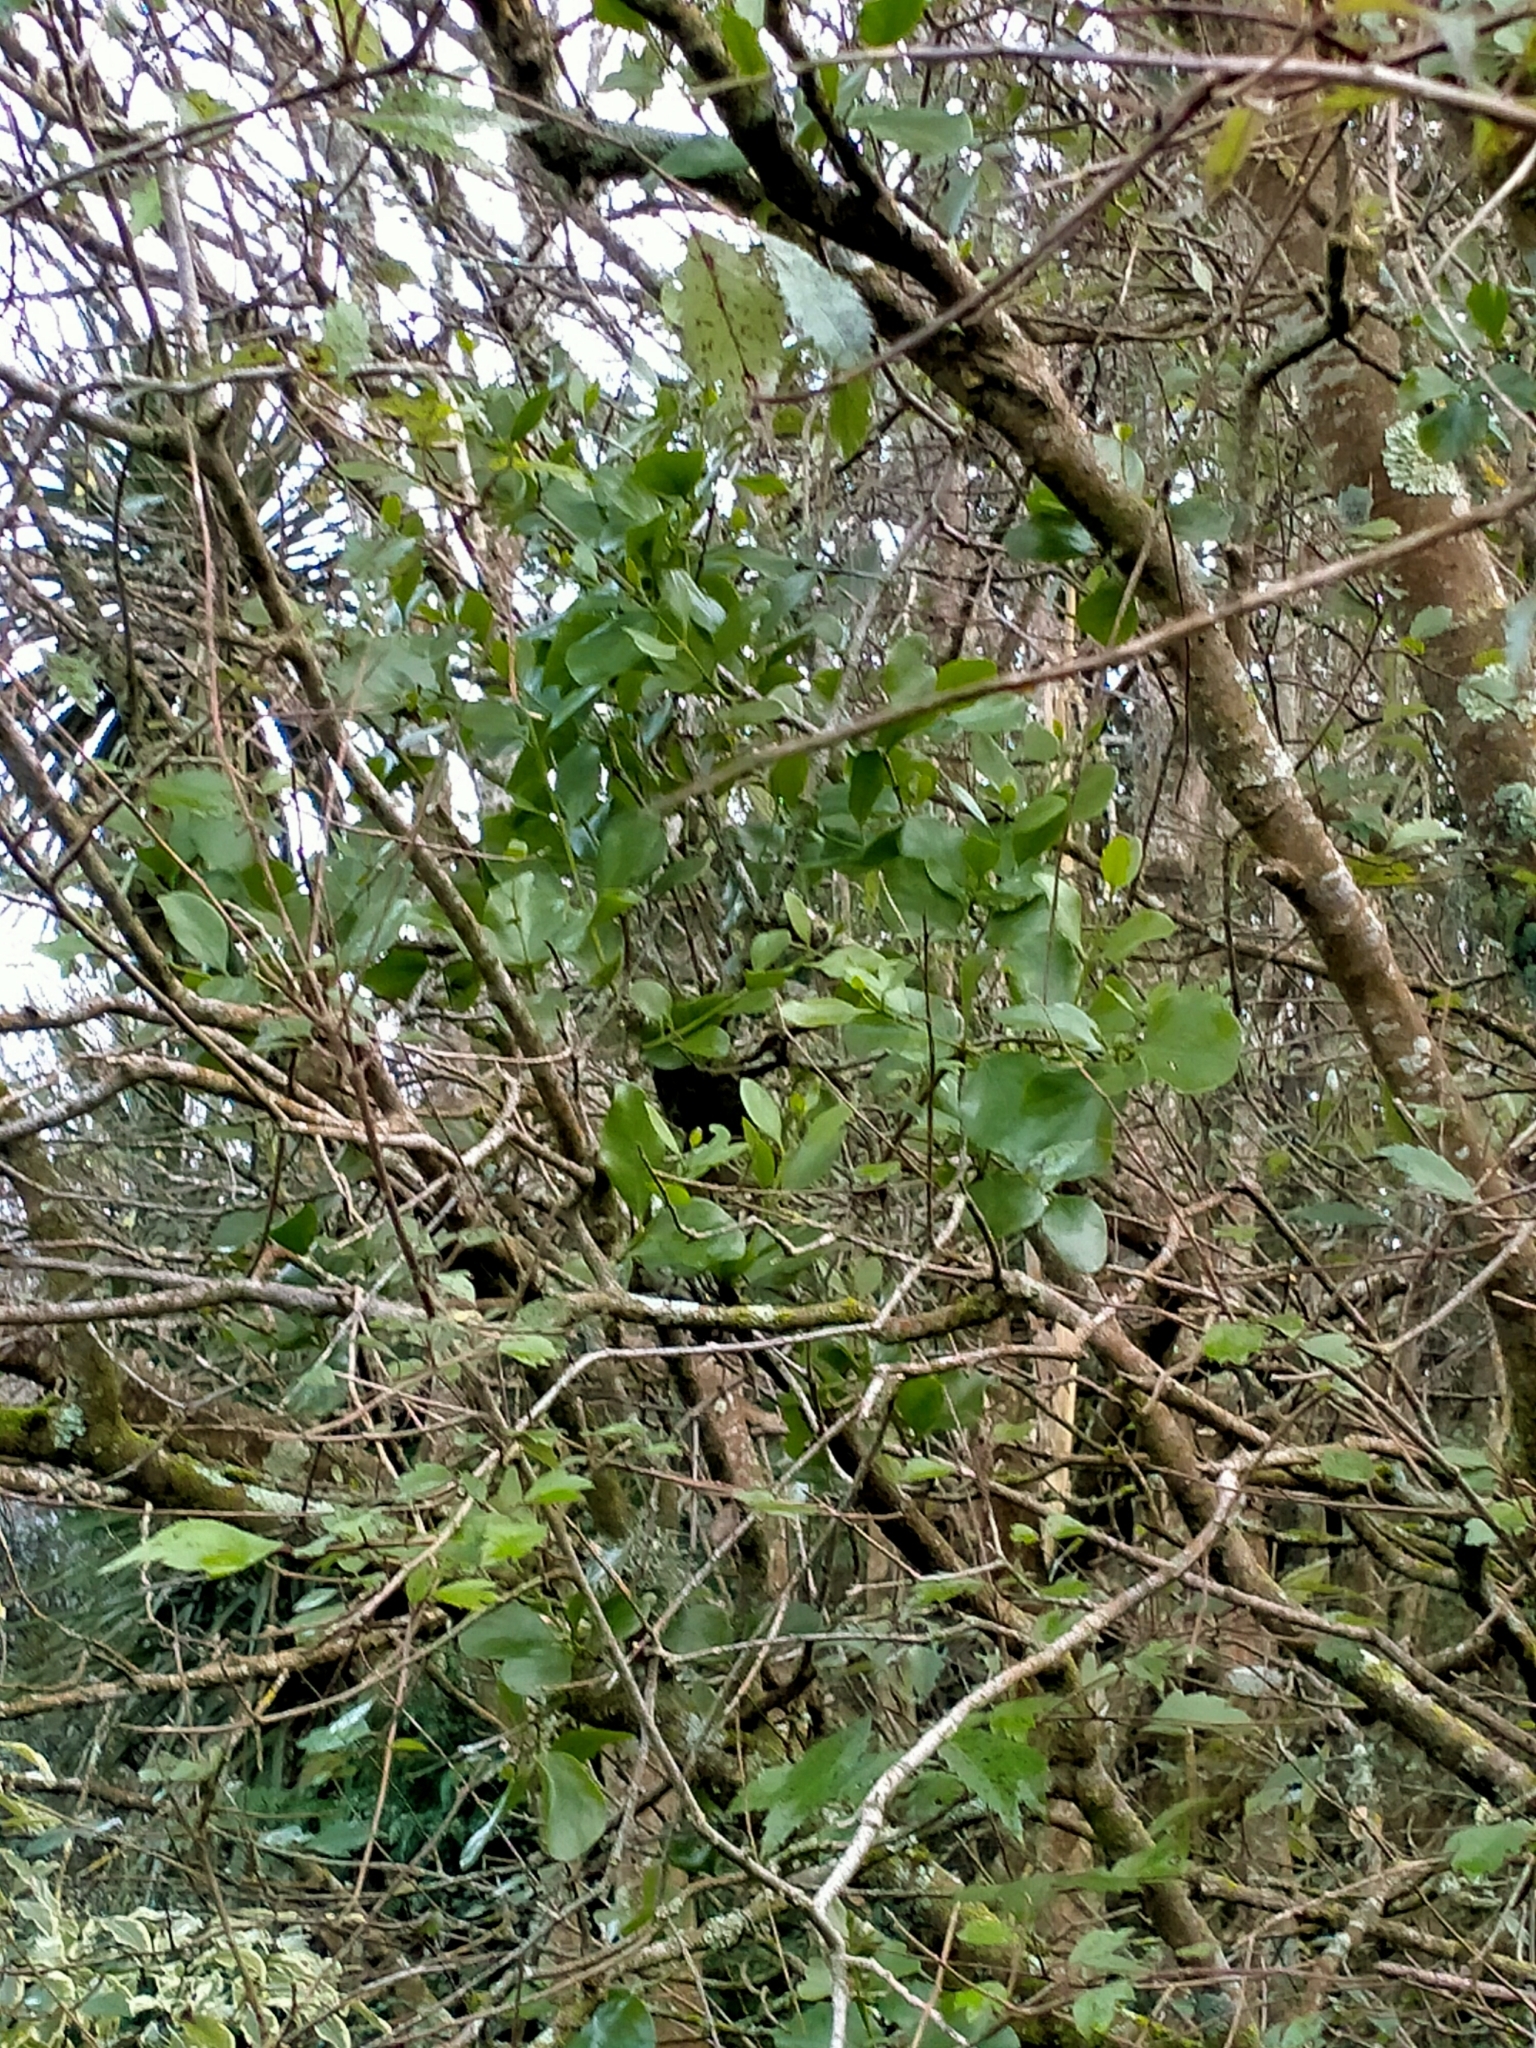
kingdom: Plantae
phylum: Tracheophyta
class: Magnoliopsida
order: Santalales
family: Loranthaceae
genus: Ileostylus
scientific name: Ileostylus micranthus
